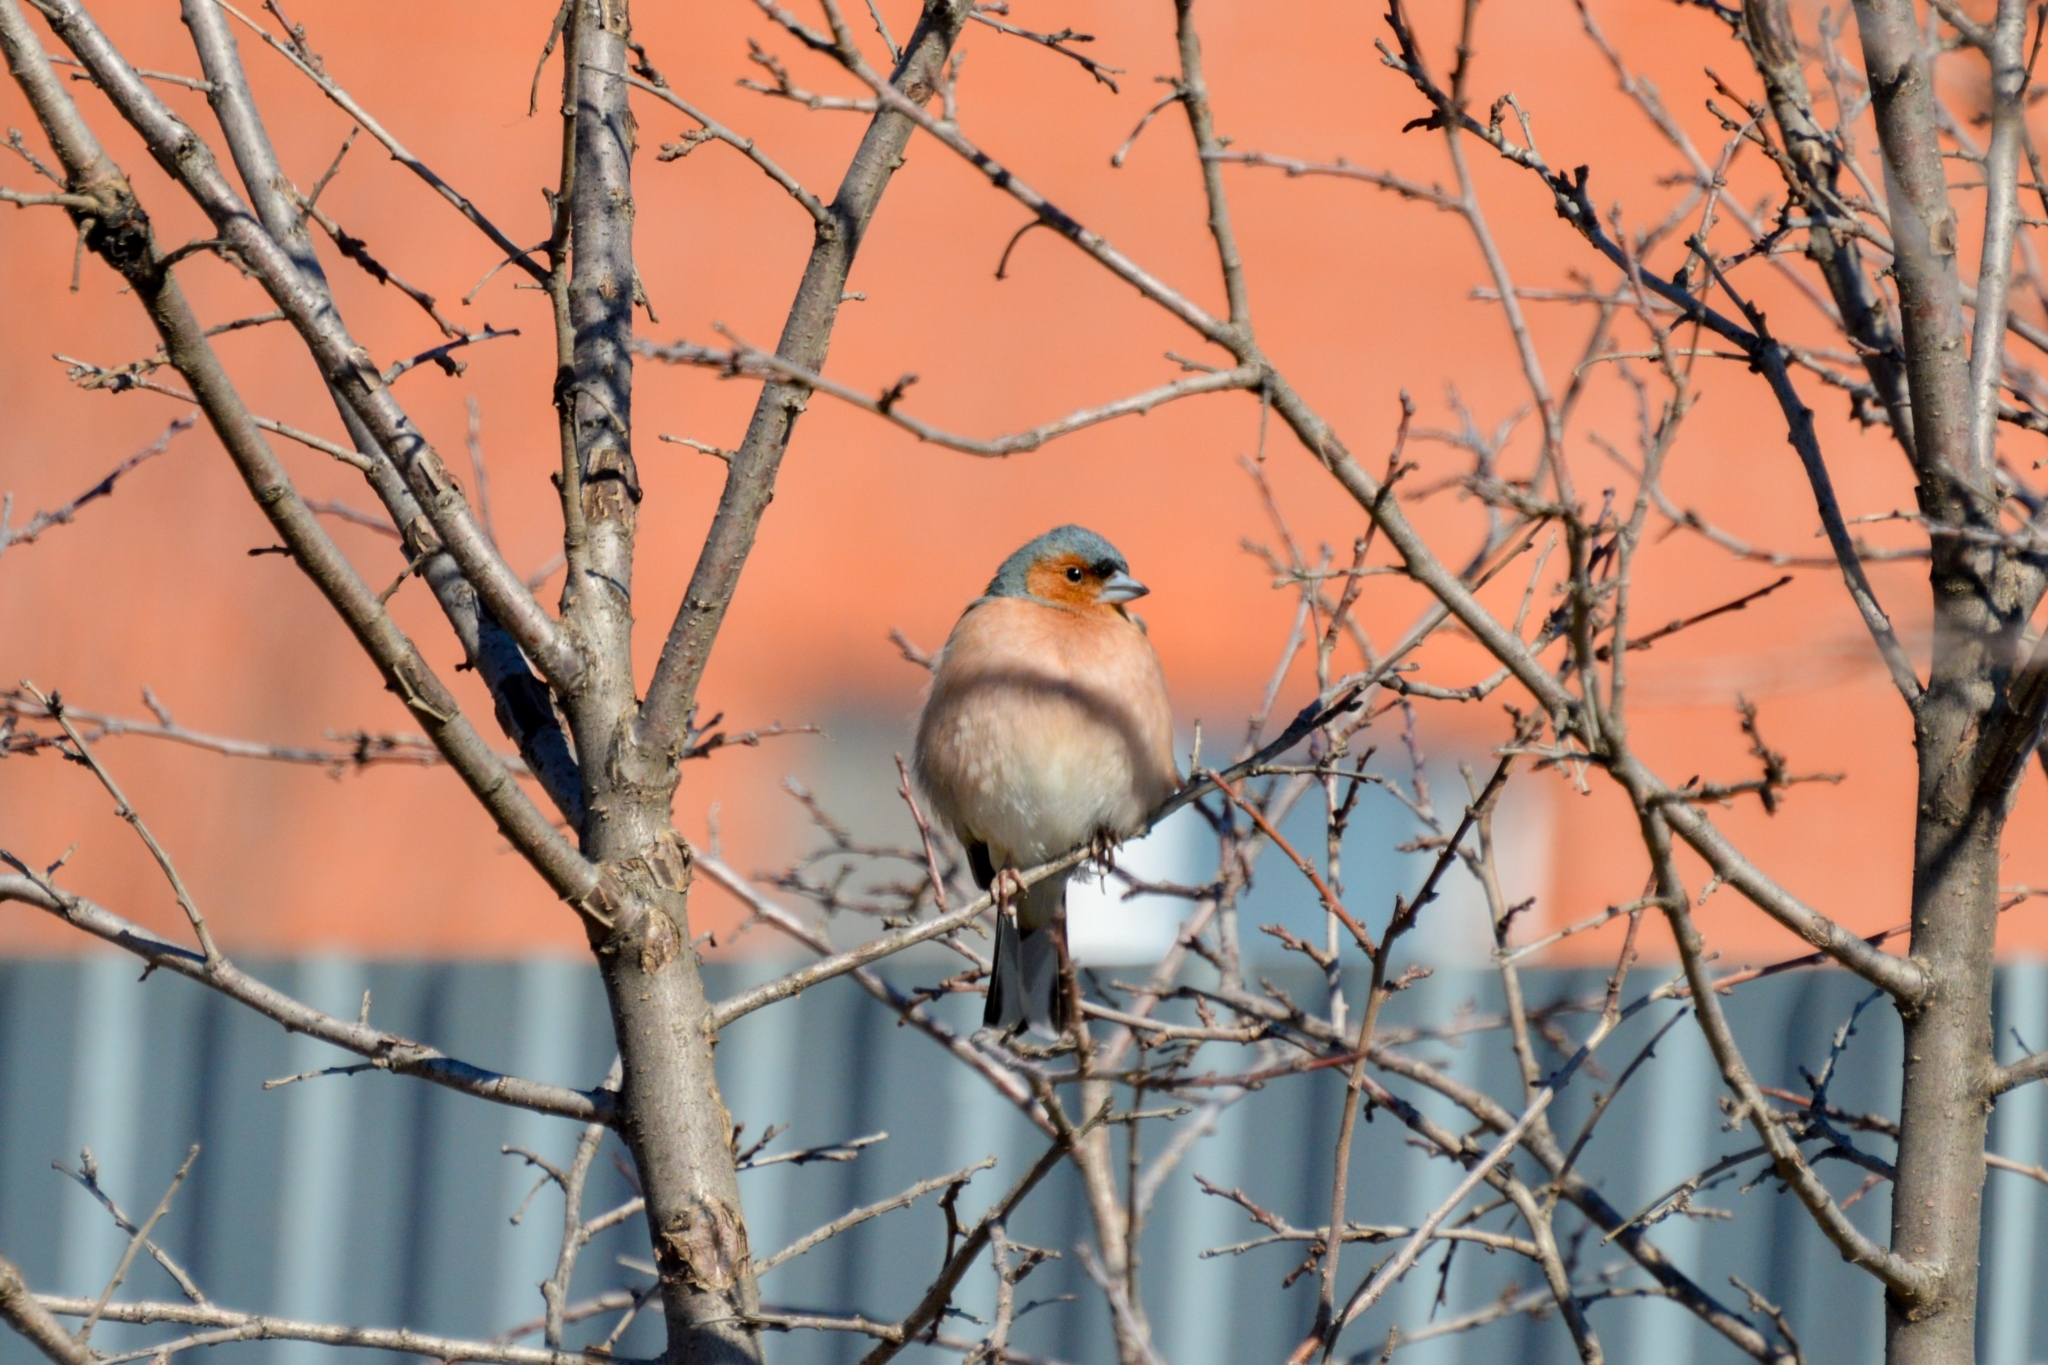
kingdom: Animalia
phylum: Chordata
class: Aves
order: Passeriformes
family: Fringillidae
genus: Fringilla
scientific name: Fringilla coelebs
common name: Common chaffinch
